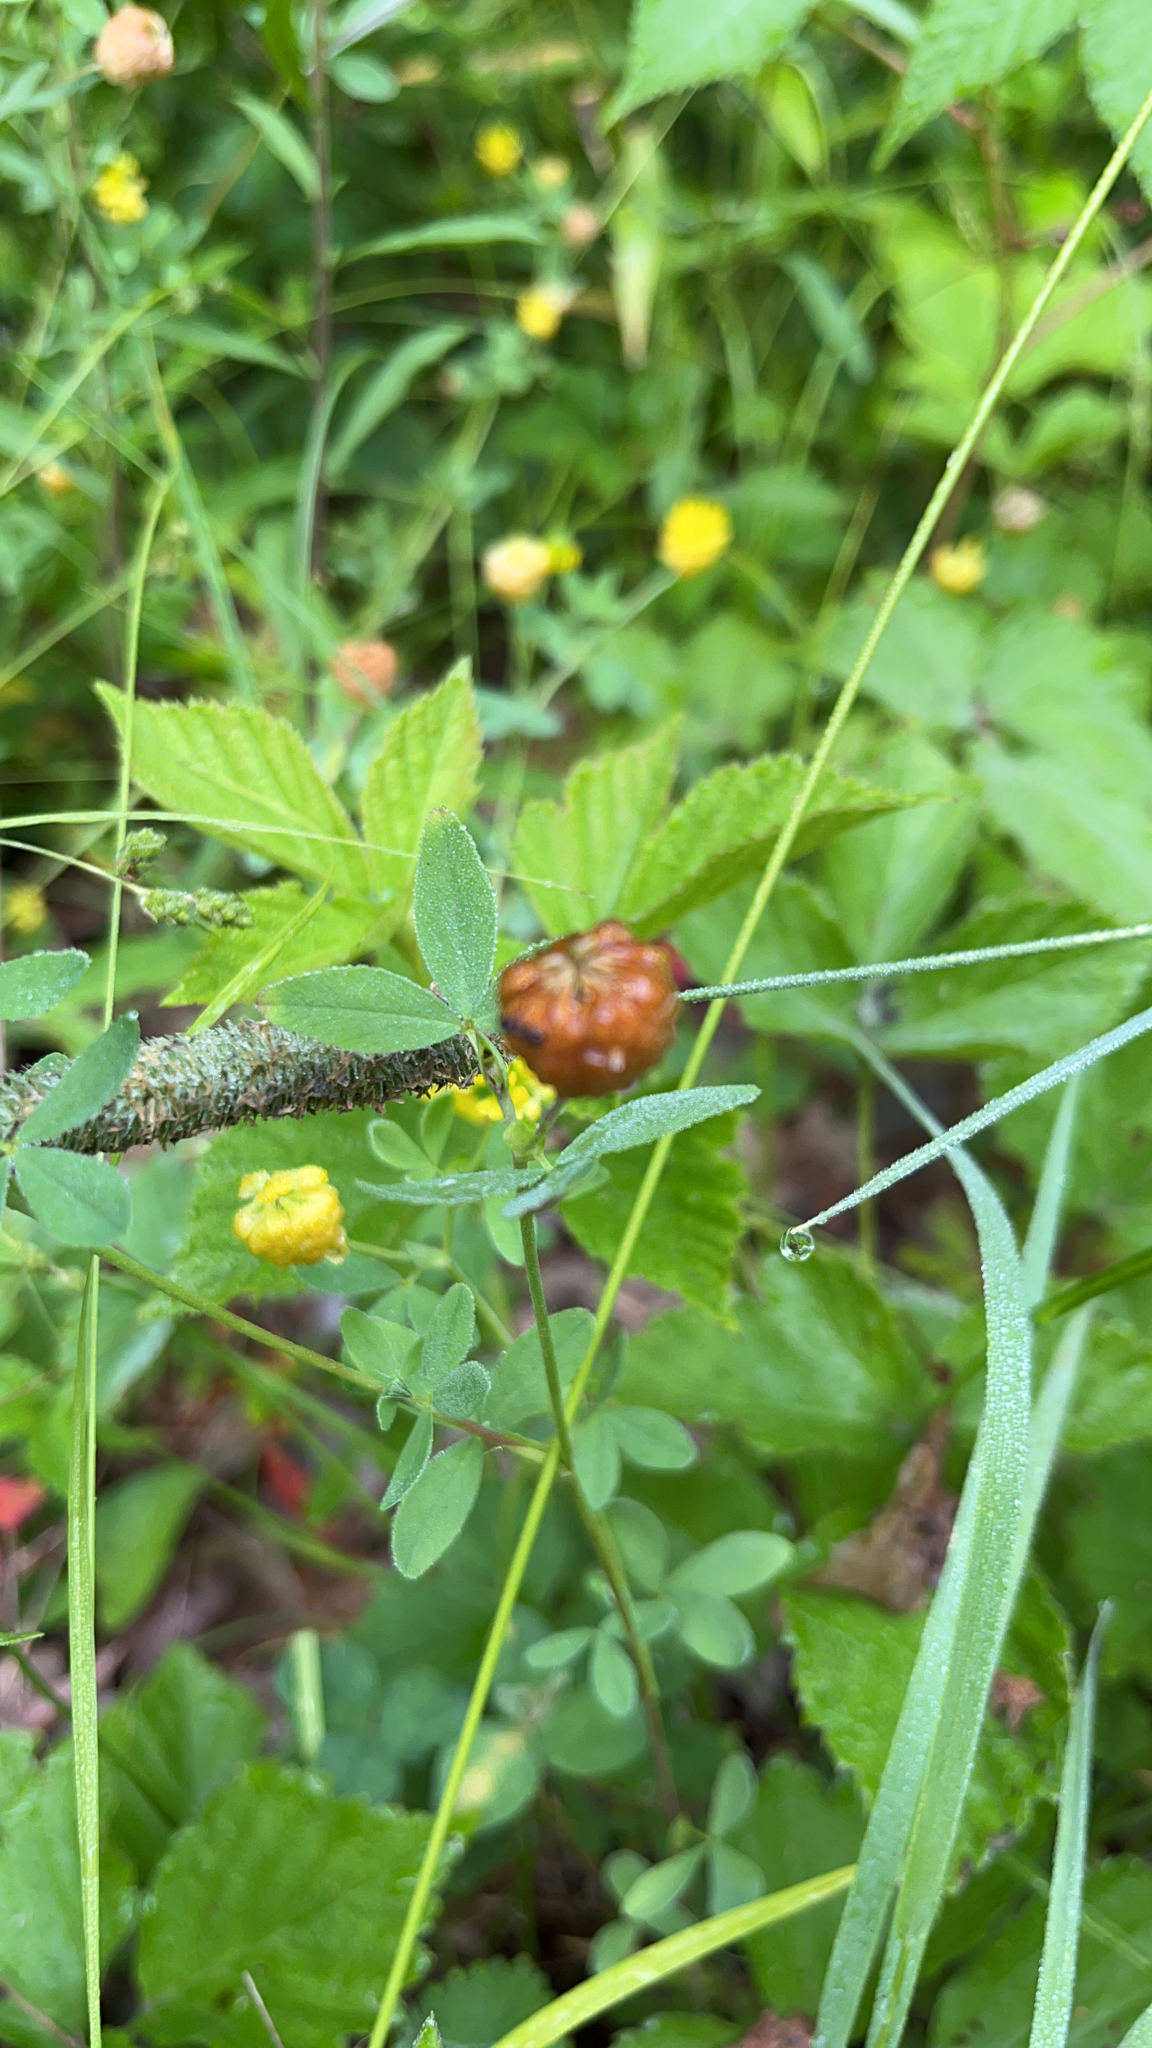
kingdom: Plantae
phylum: Tracheophyta
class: Magnoliopsida
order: Fabales
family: Fabaceae
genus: Trifolium
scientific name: Trifolium aureum
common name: Golden clover
